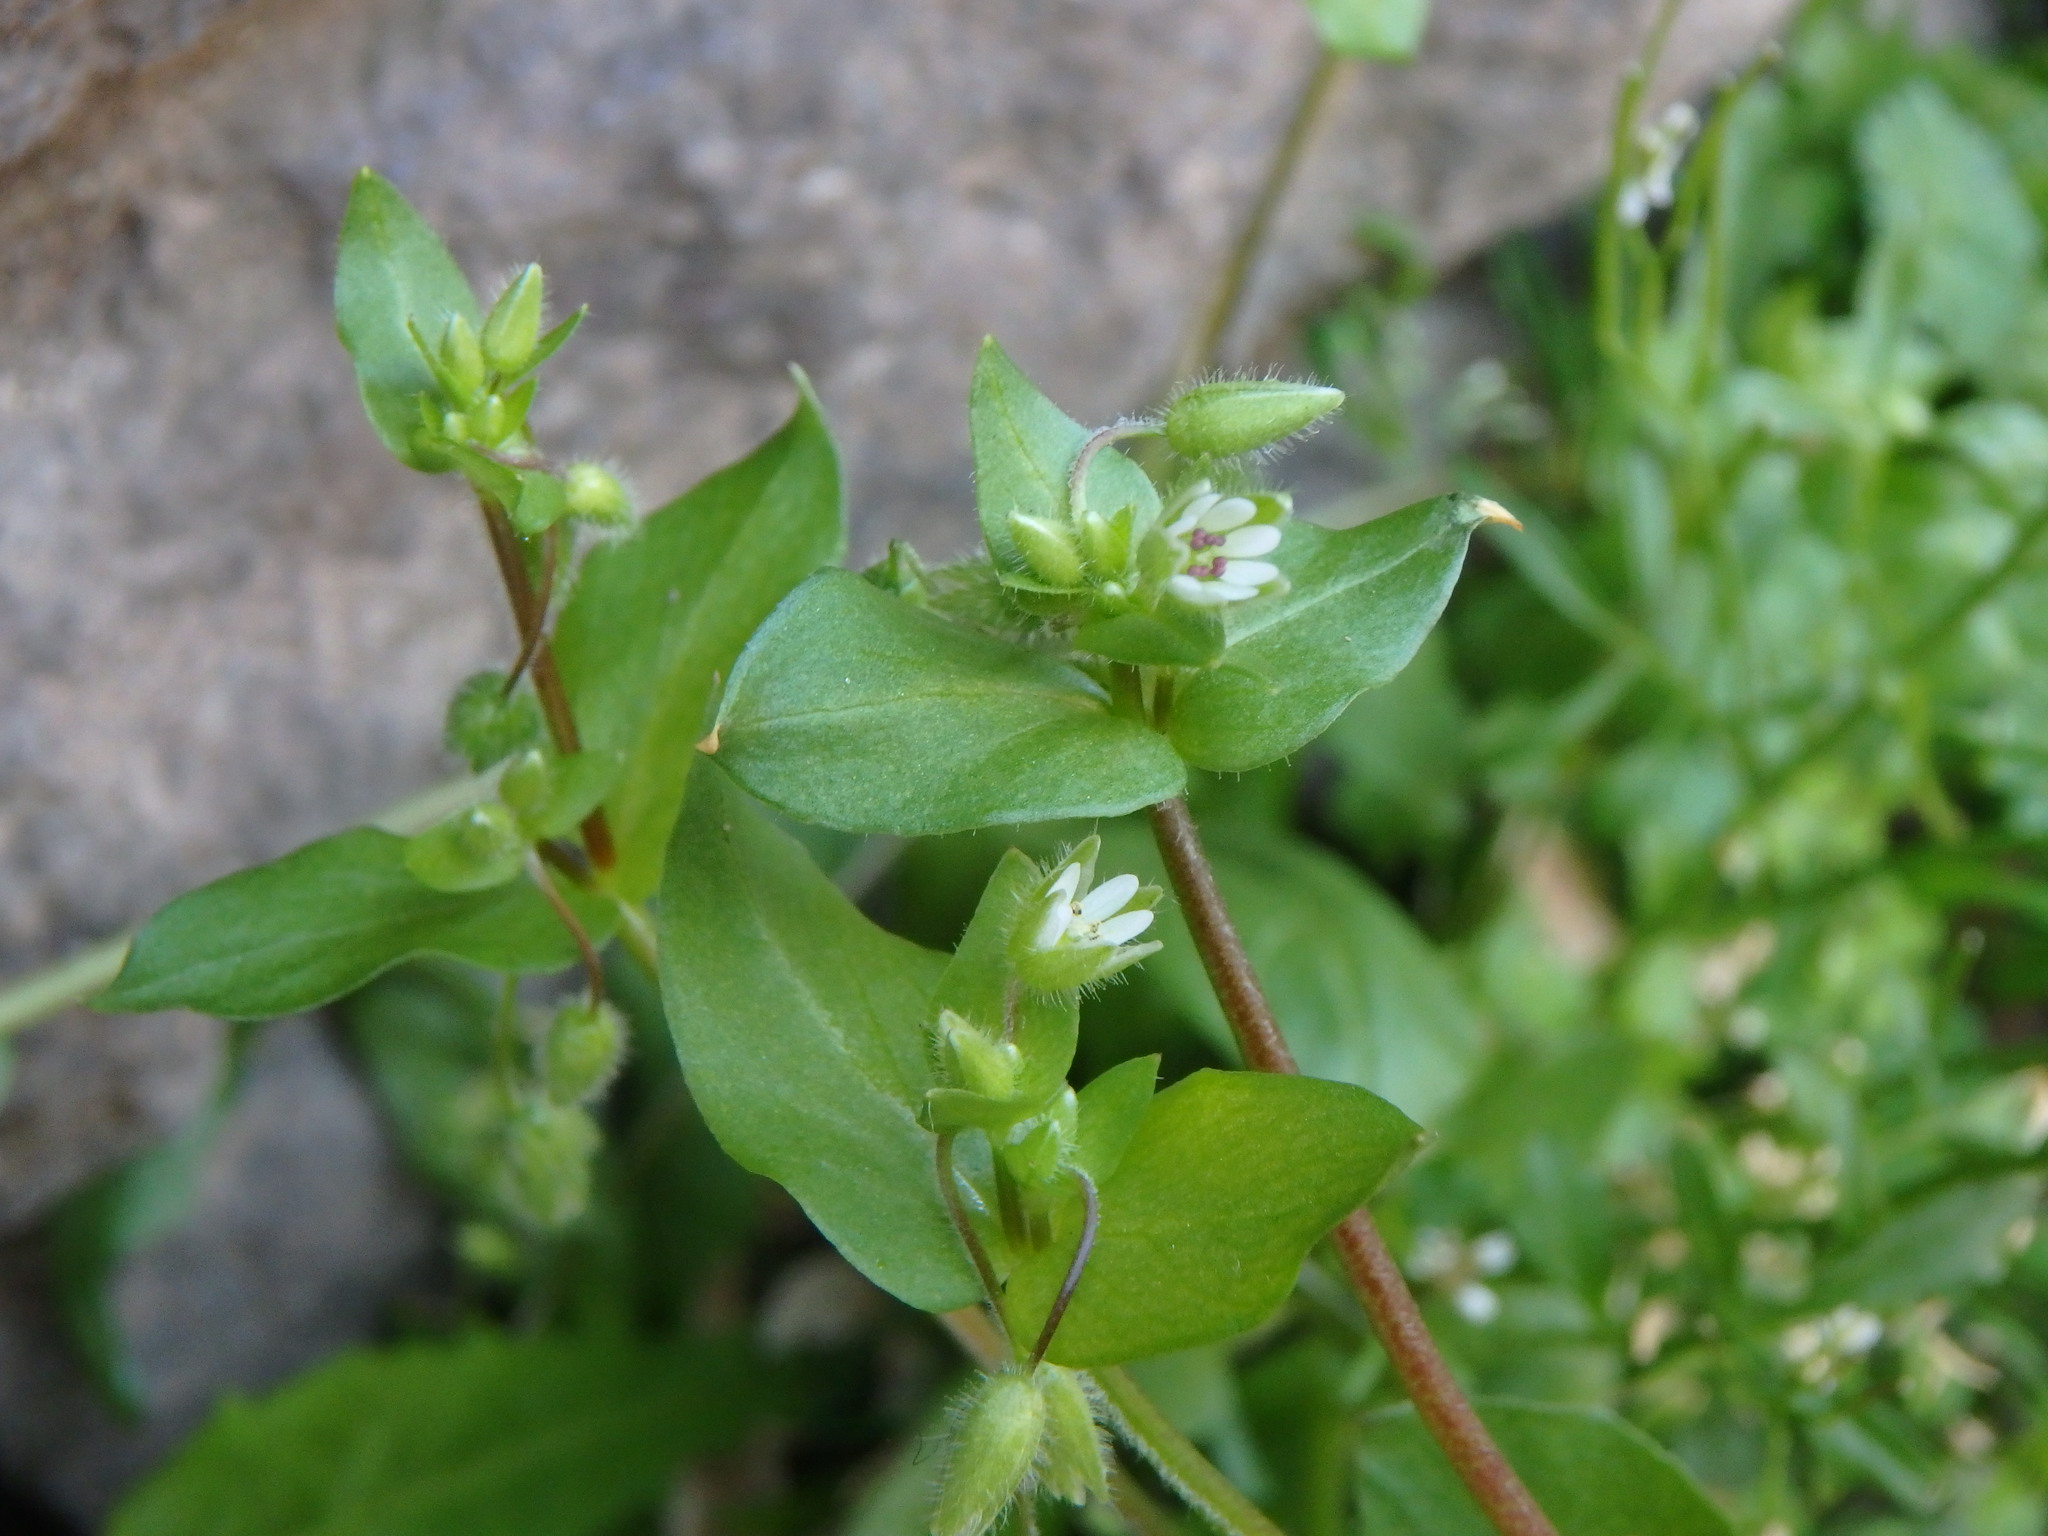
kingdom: Plantae
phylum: Tracheophyta
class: Magnoliopsida
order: Caryophyllales
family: Caryophyllaceae
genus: Stellaria
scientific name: Stellaria media
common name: Common chickweed
